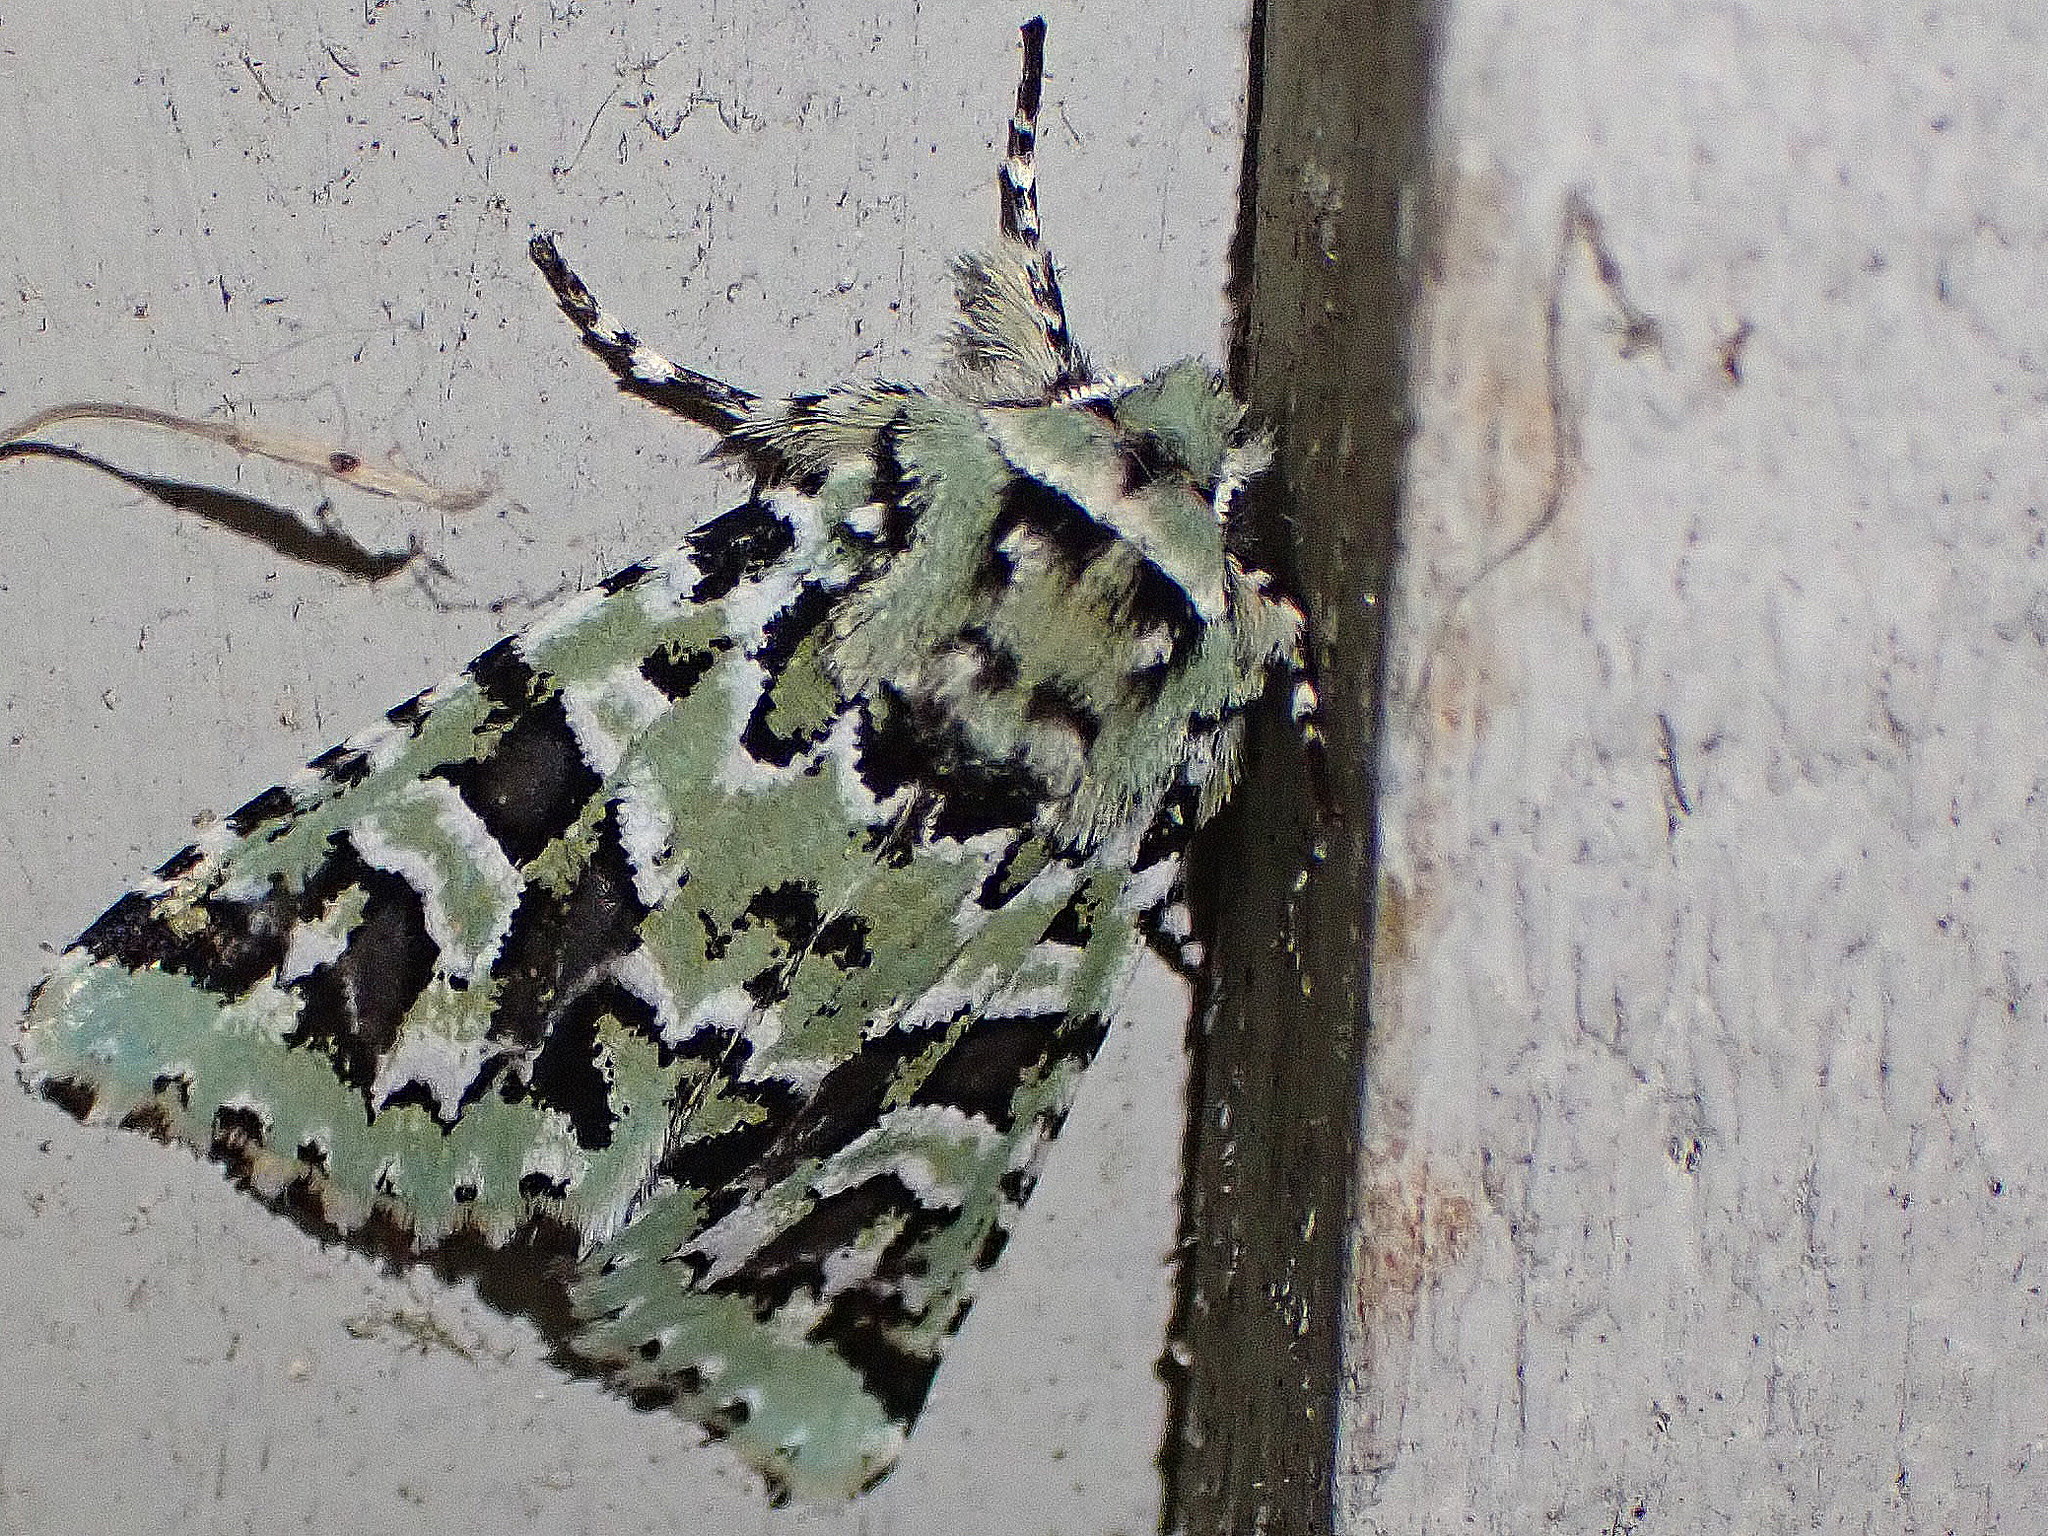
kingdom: Animalia
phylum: Arthropoda
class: Insecta
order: Lepidoptera
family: Noctuidae
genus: Feralia
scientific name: Feralia comstocki
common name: Comstock's sallow
